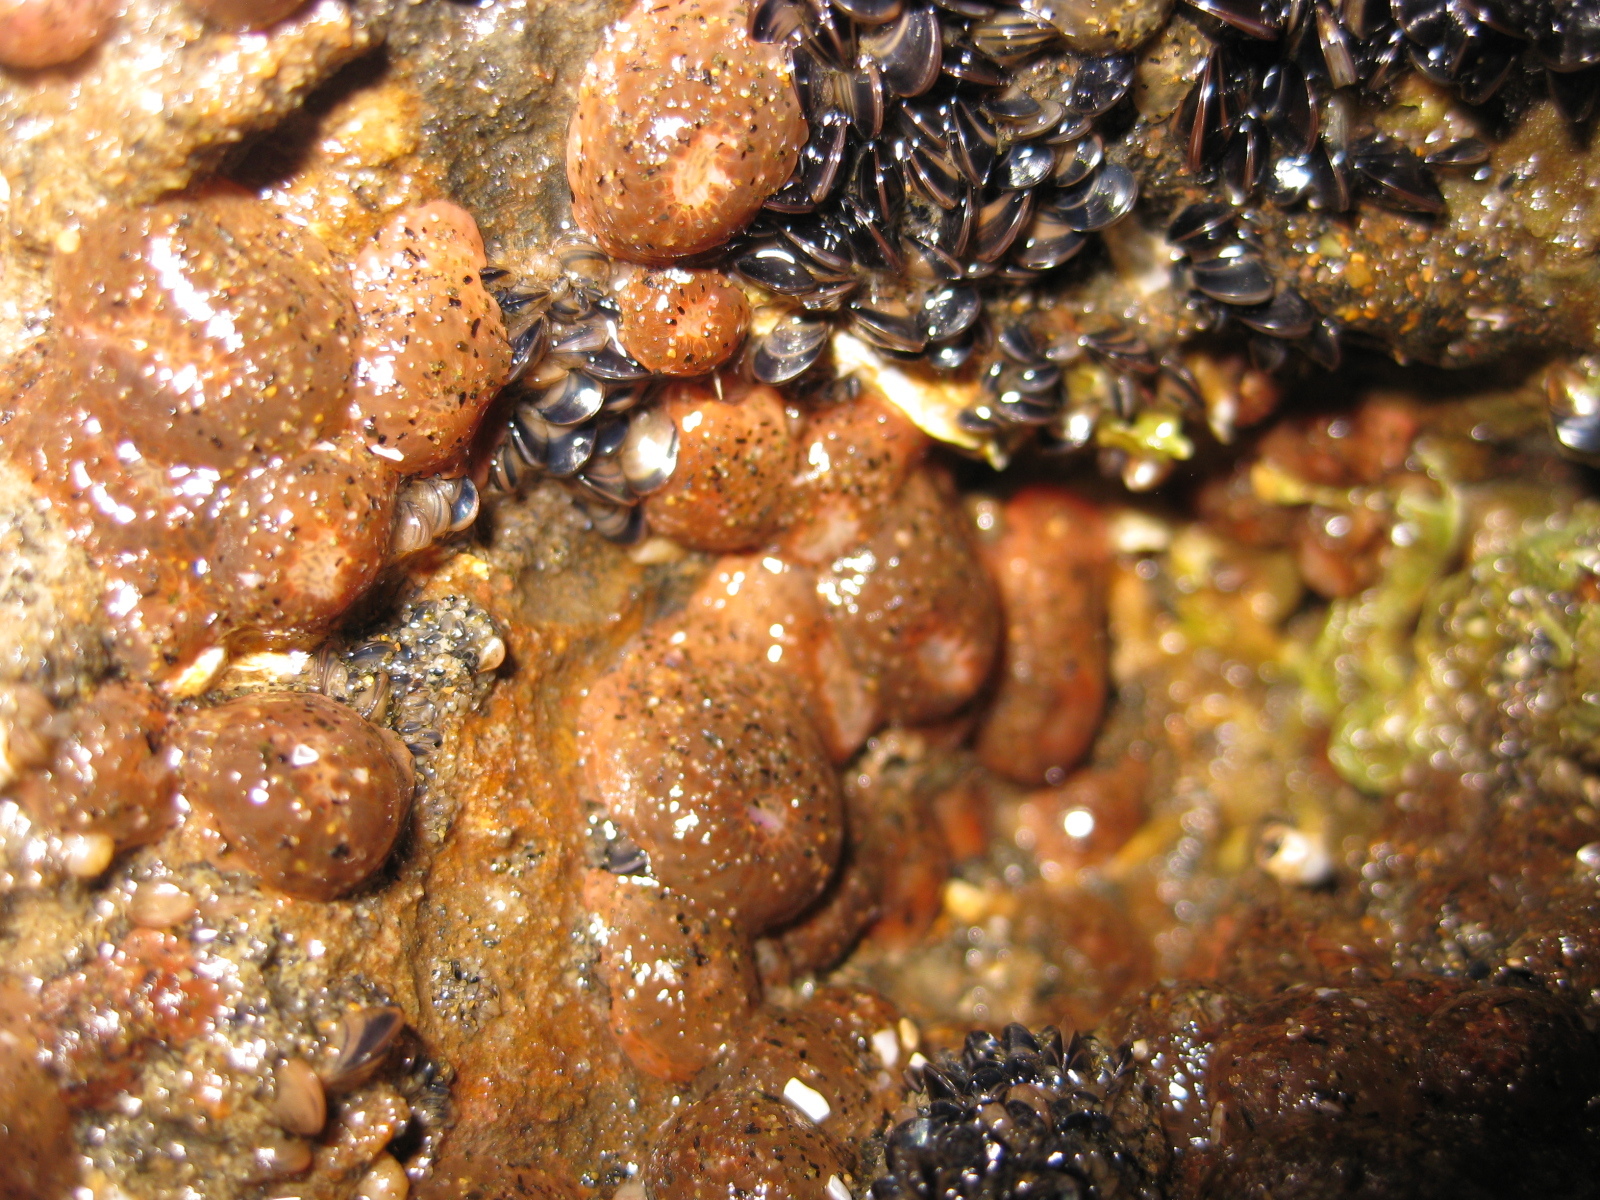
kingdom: Animalia
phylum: Mollusca
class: Bivalvia
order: Mytilida
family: Mytilidae
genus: Xenostrobus
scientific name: Xenostrobus neozelanicus
